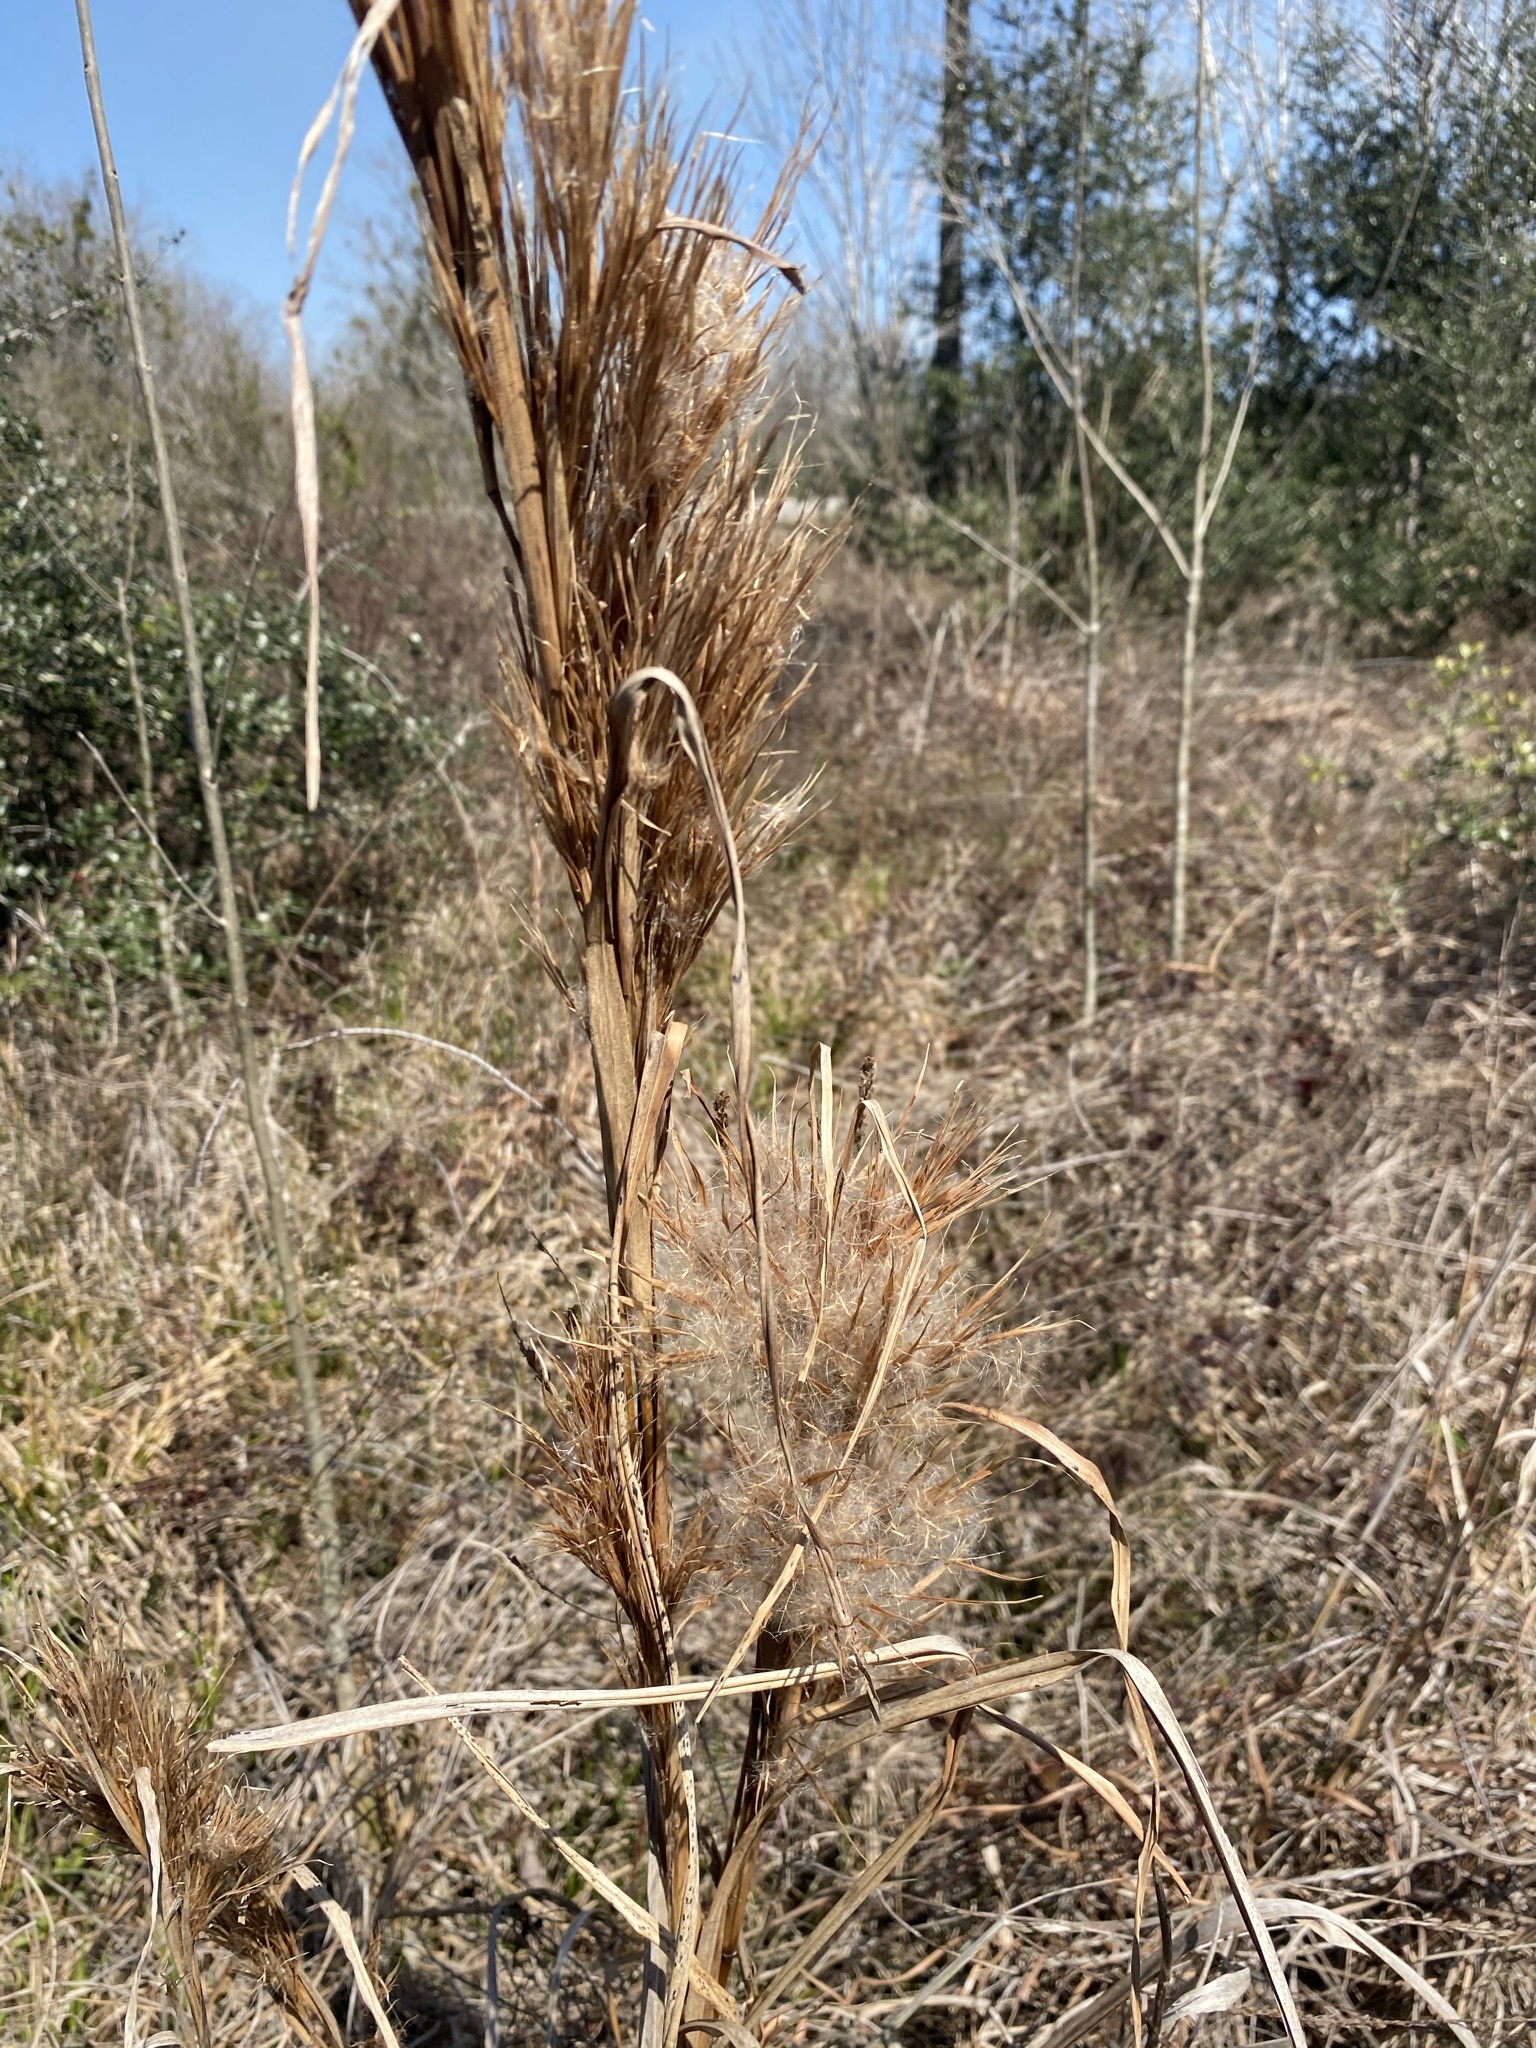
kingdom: Plantae
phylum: Tracheophyta
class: Liliopsida
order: Poales
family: Poaceae
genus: Andropogon
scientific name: Andropogon tenuispatheus
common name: Bushy bluestem
